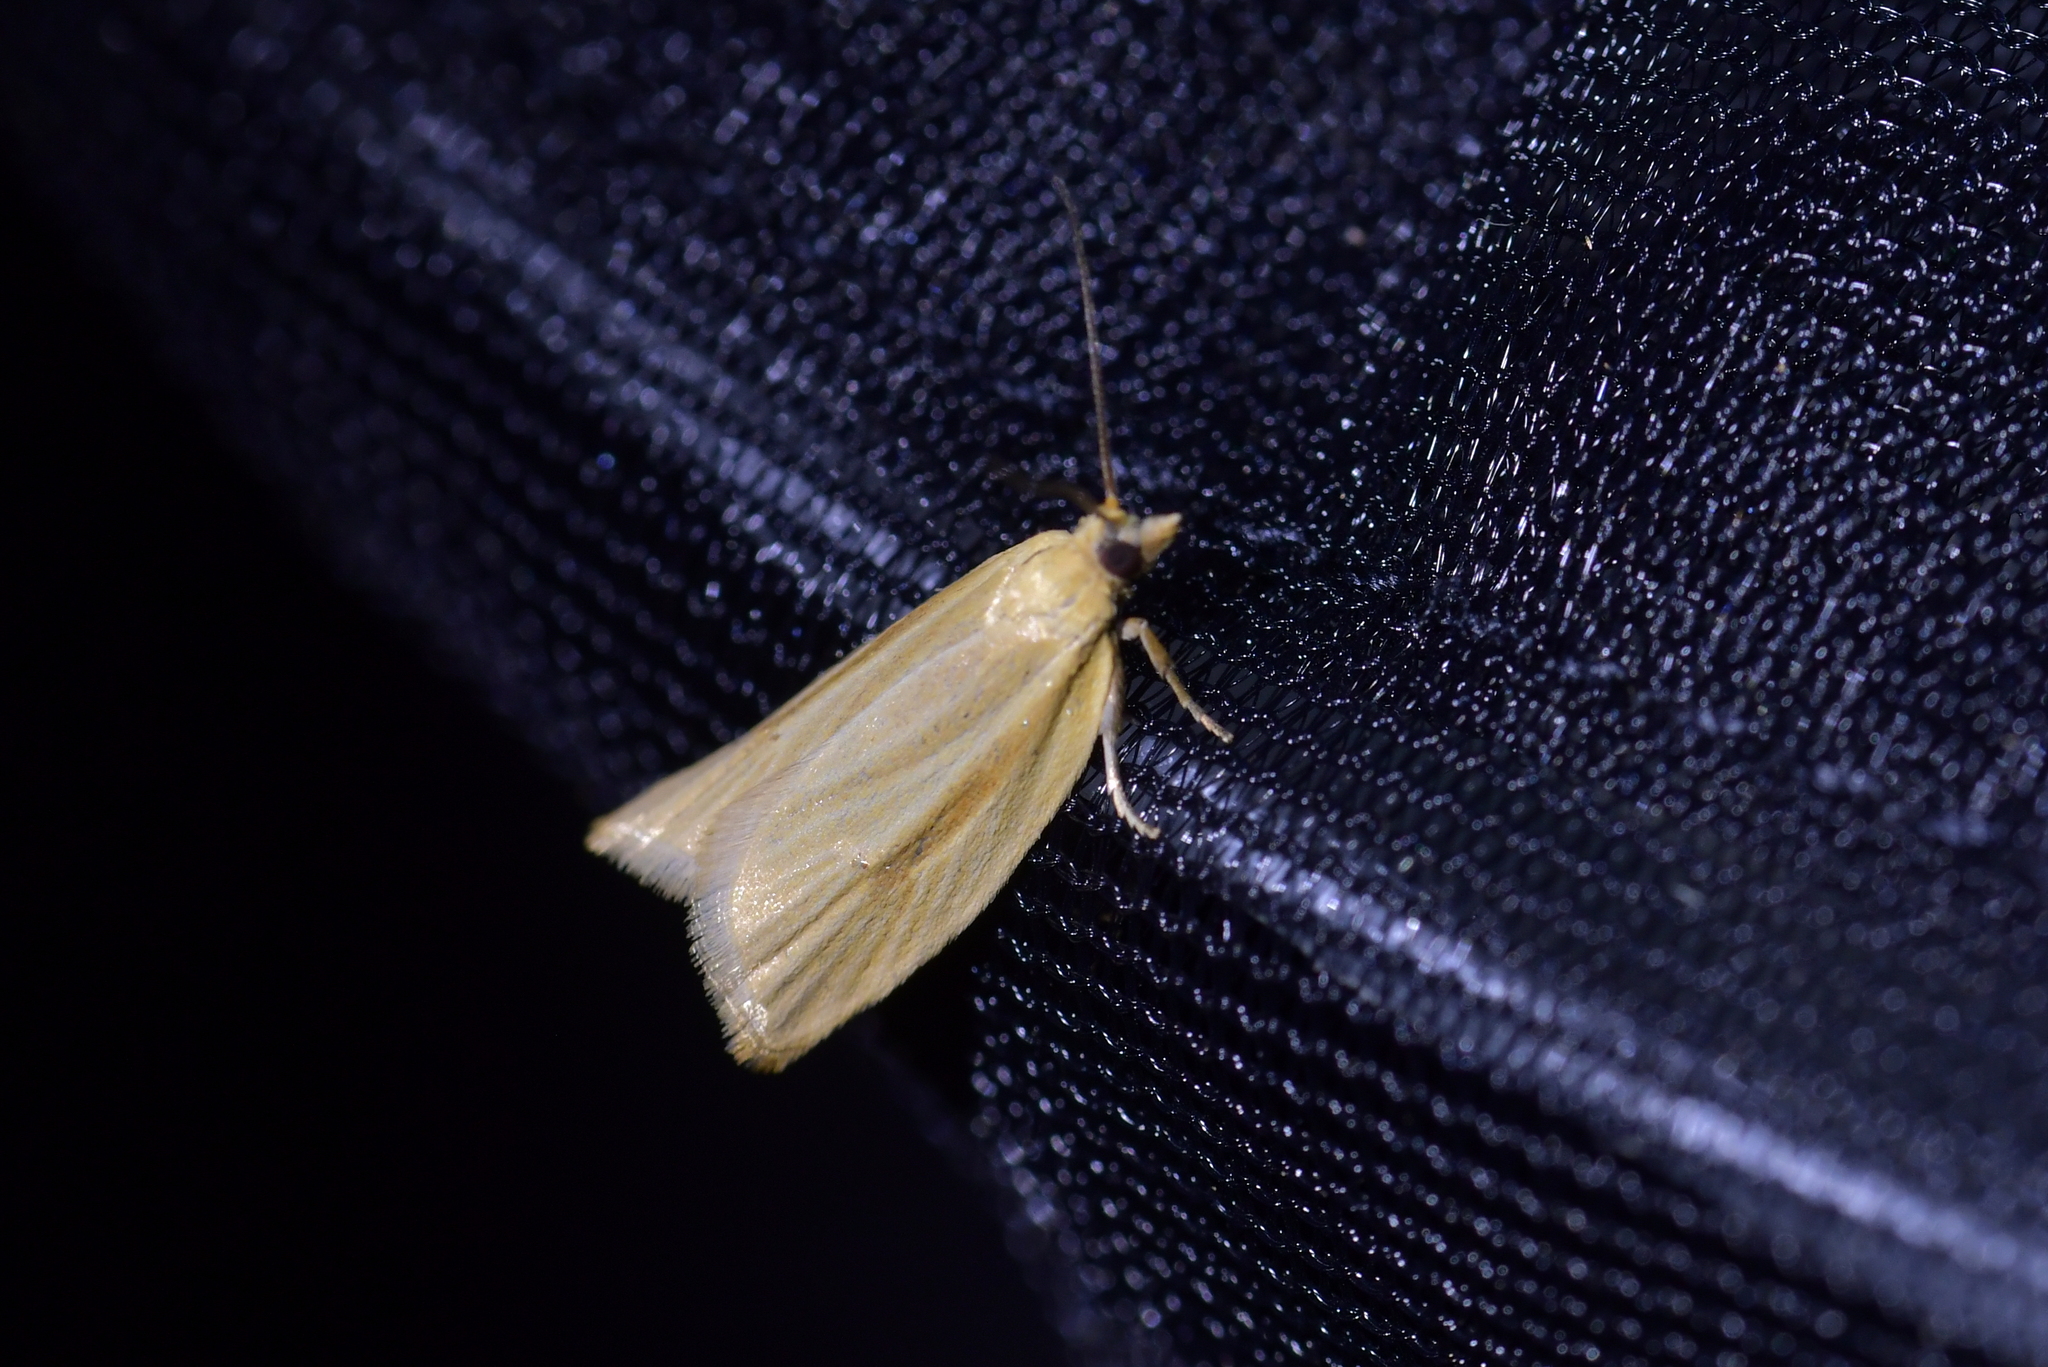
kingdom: Animalia
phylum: Arthropoda
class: Insecta
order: Lepidoptera
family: Tortricidae
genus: Clepsis
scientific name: Clepsis
